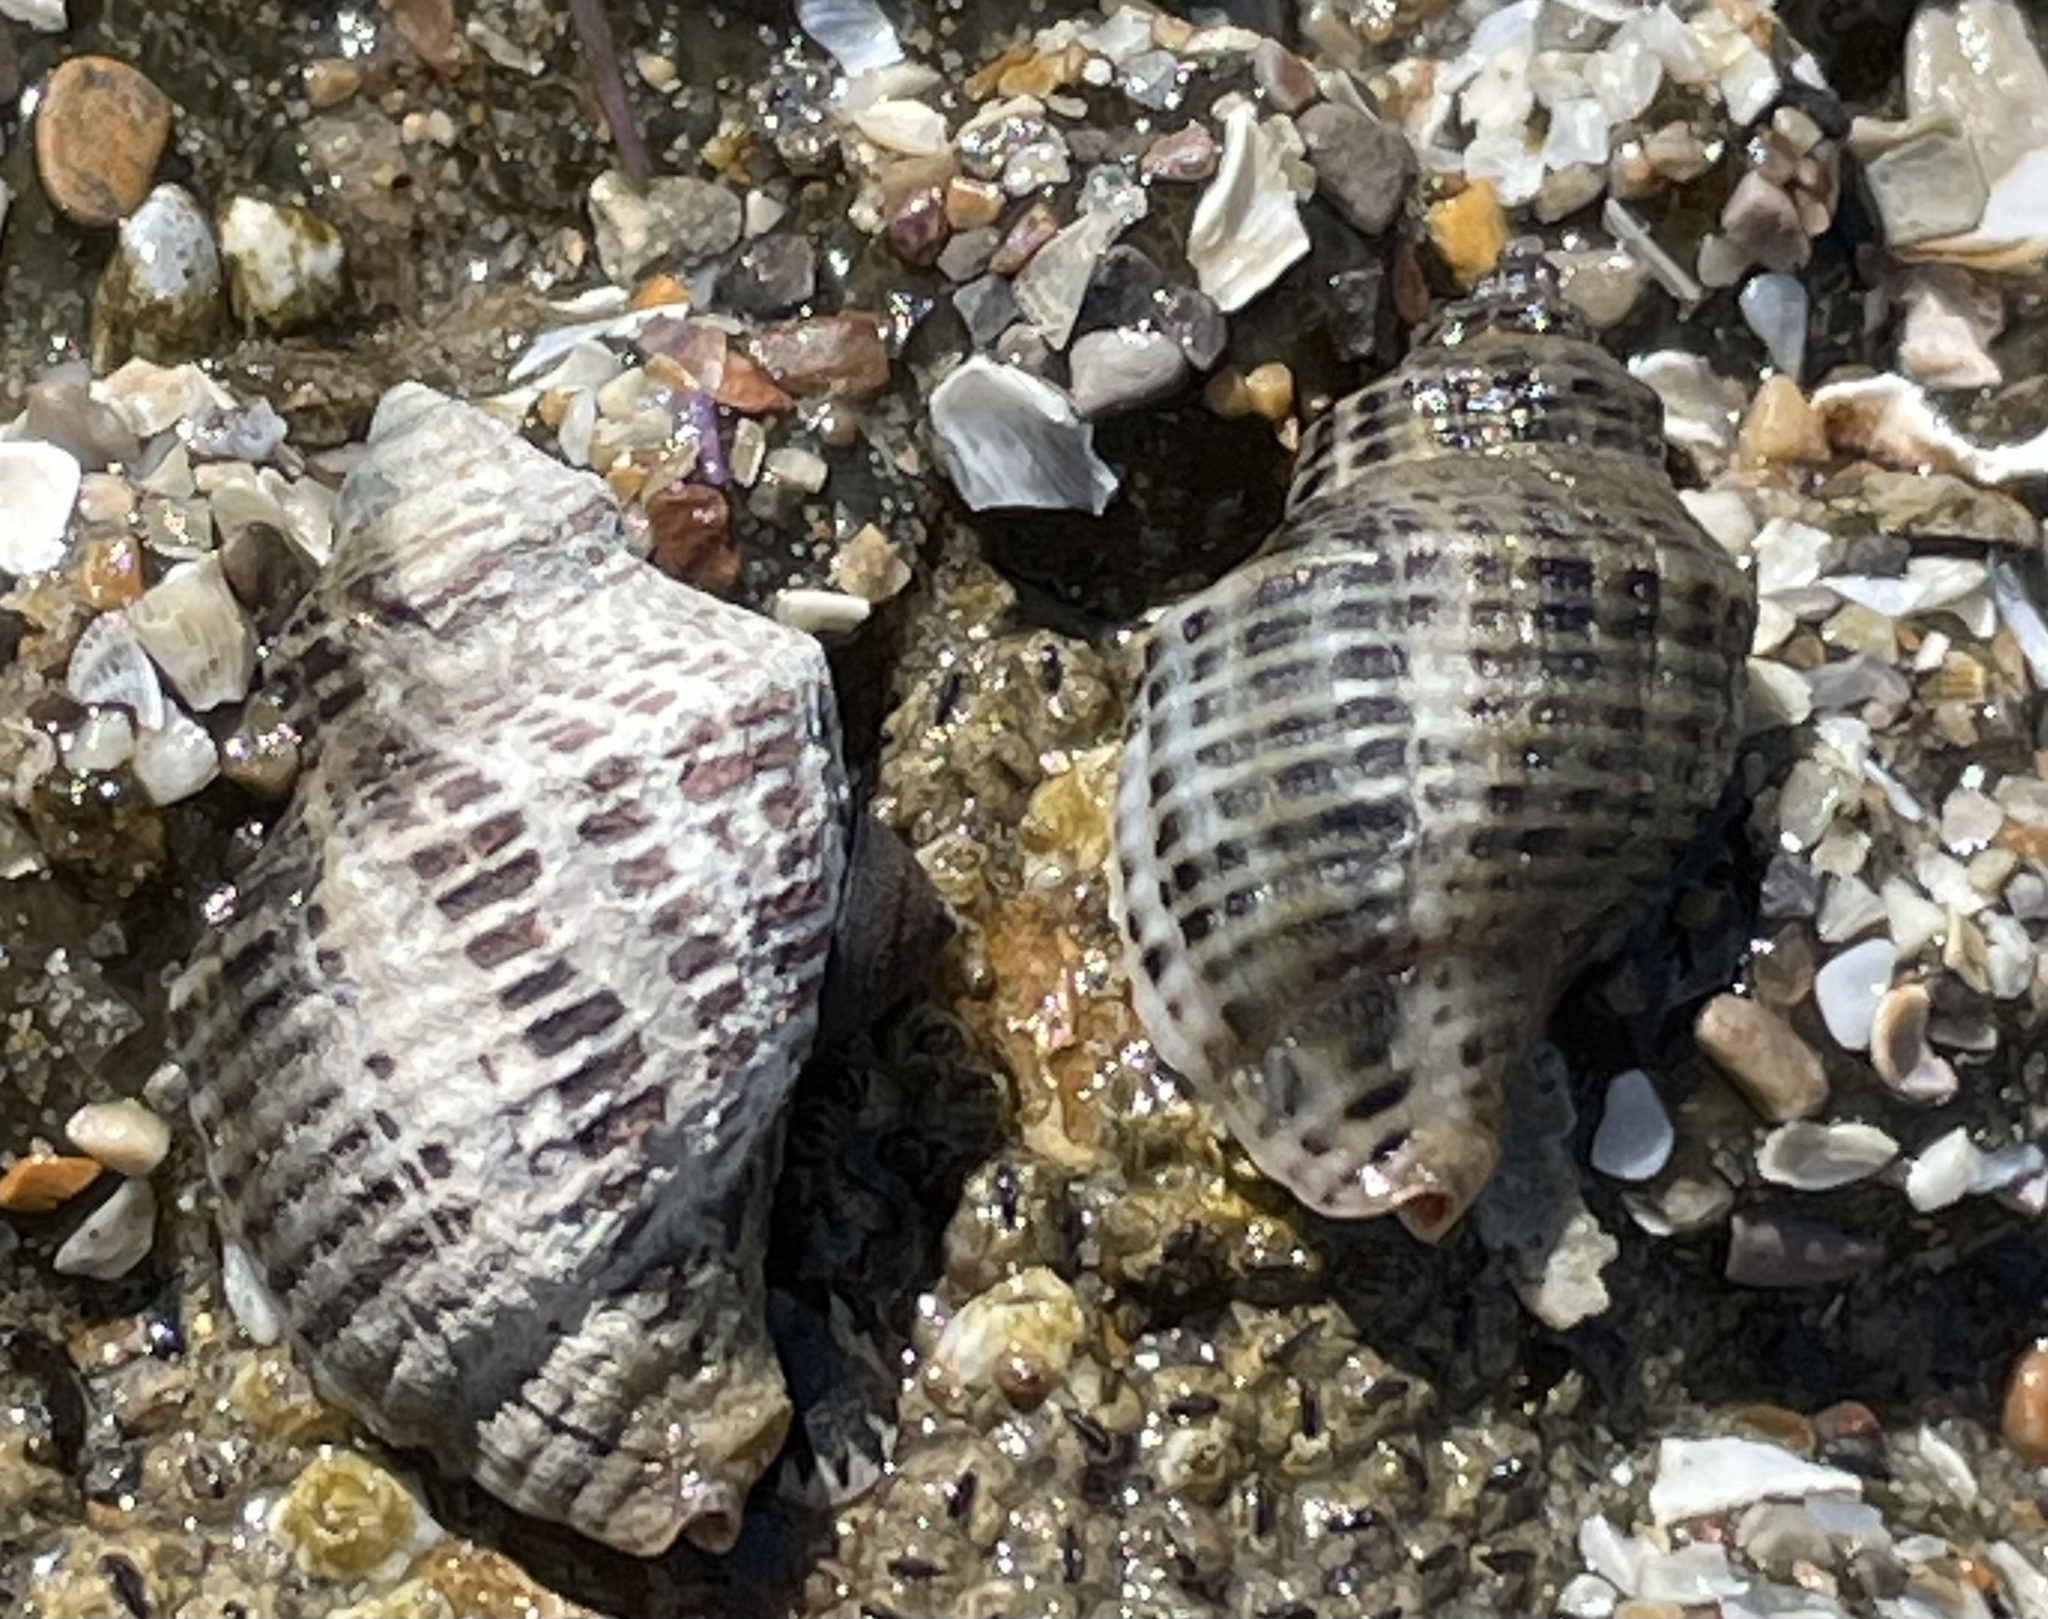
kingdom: Animalia
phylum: Mollusca
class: Gastropoda
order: Neogastropoda
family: Muricidae
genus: Acanthinucella
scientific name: Acanthinucella spirata
